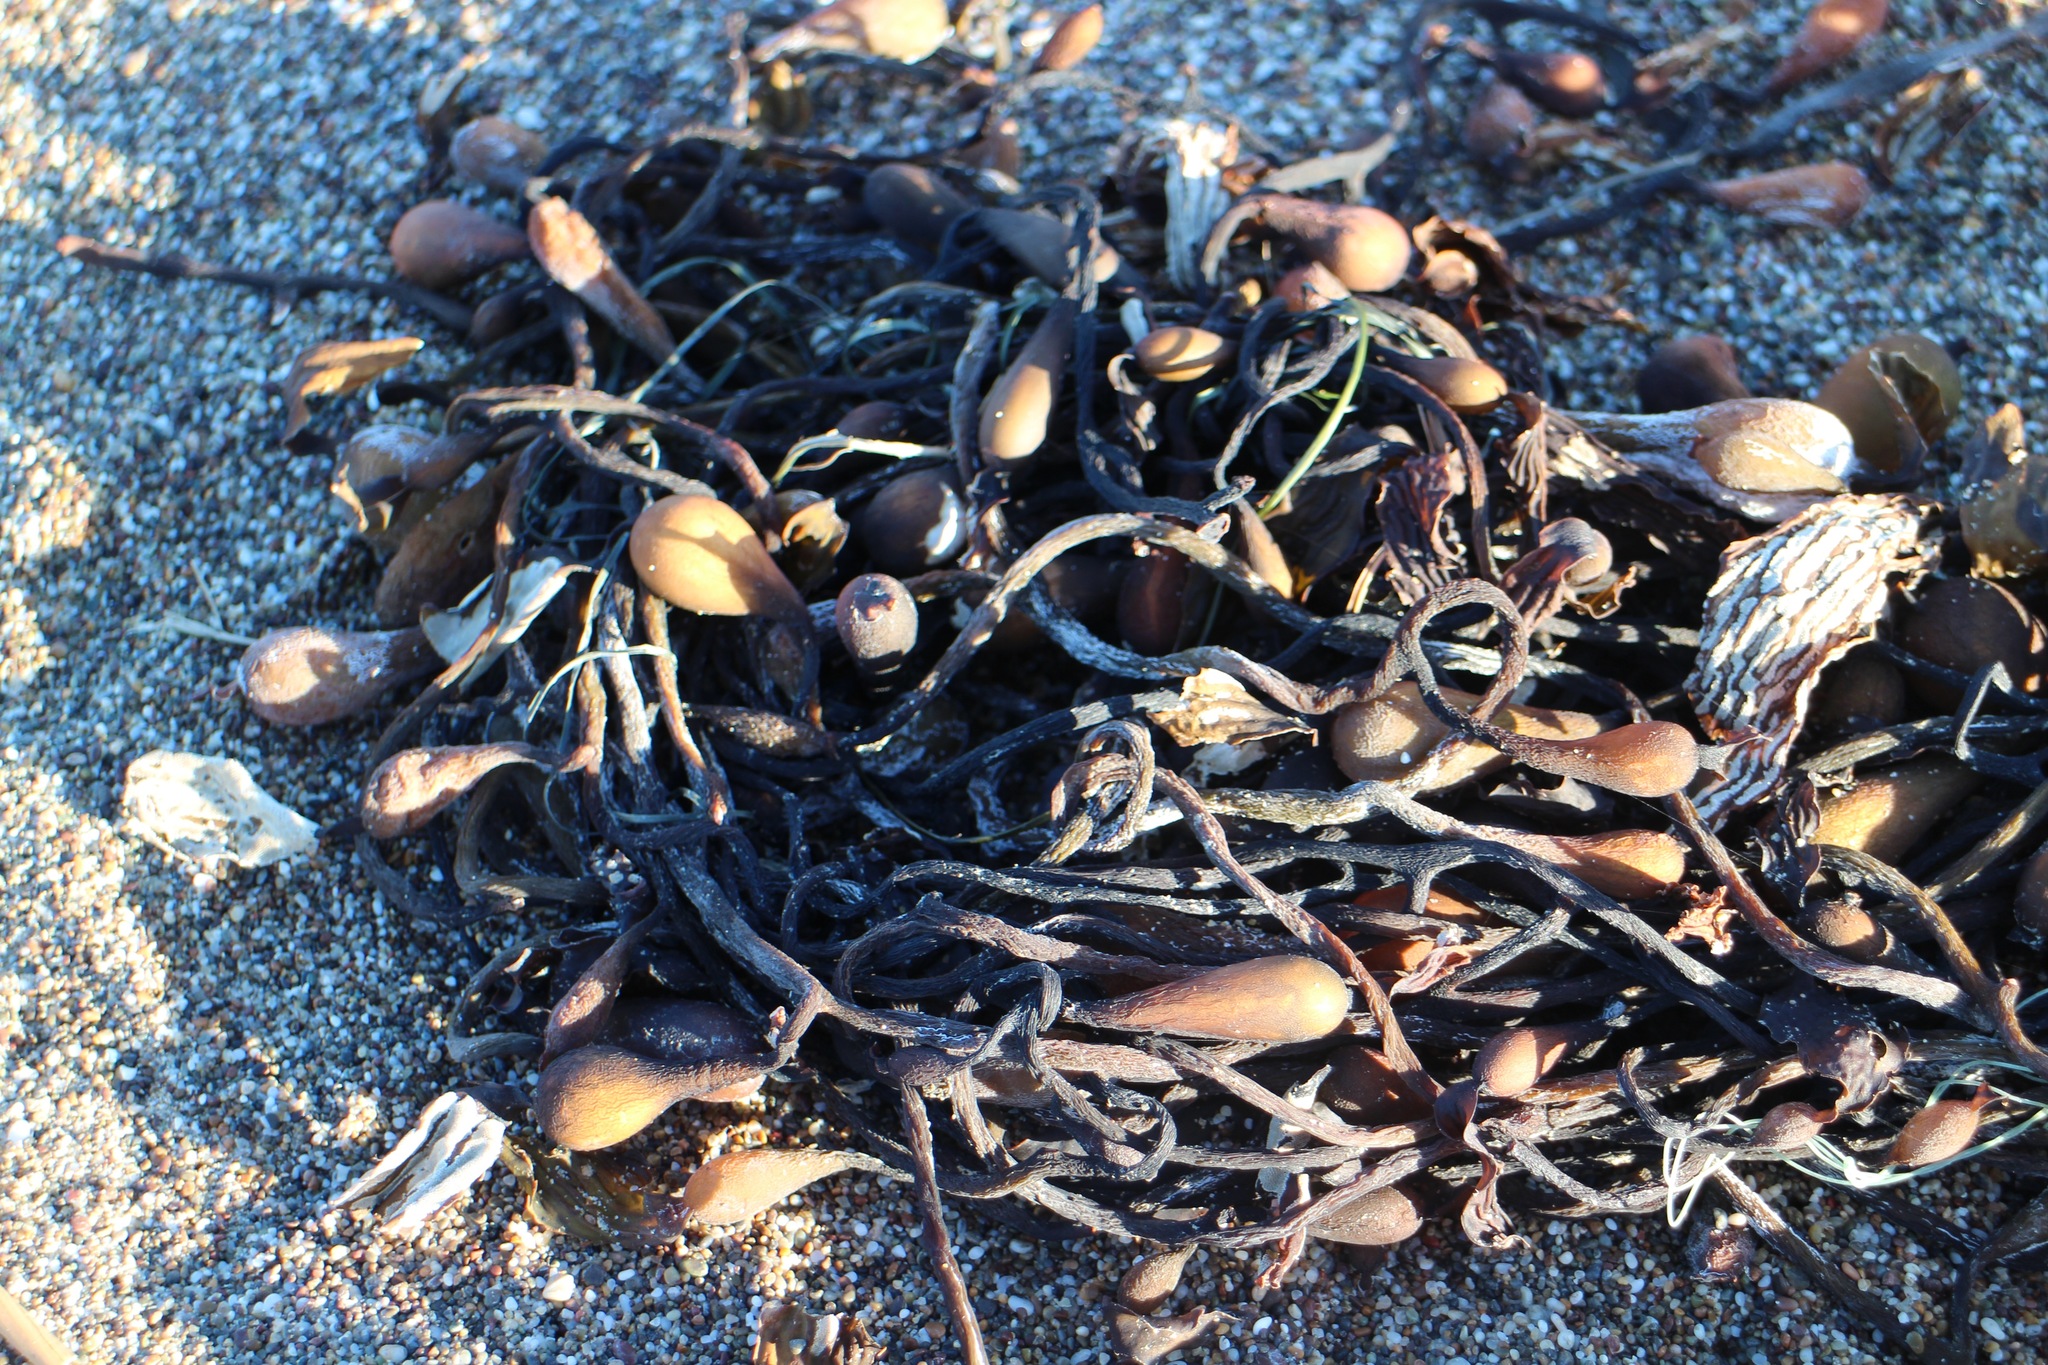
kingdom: Chromista
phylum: Ochrophyta
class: Phaeophyceae
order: Laminariales
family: Laminariaceae
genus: Macrocystis
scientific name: Macrocystis pyrifera
